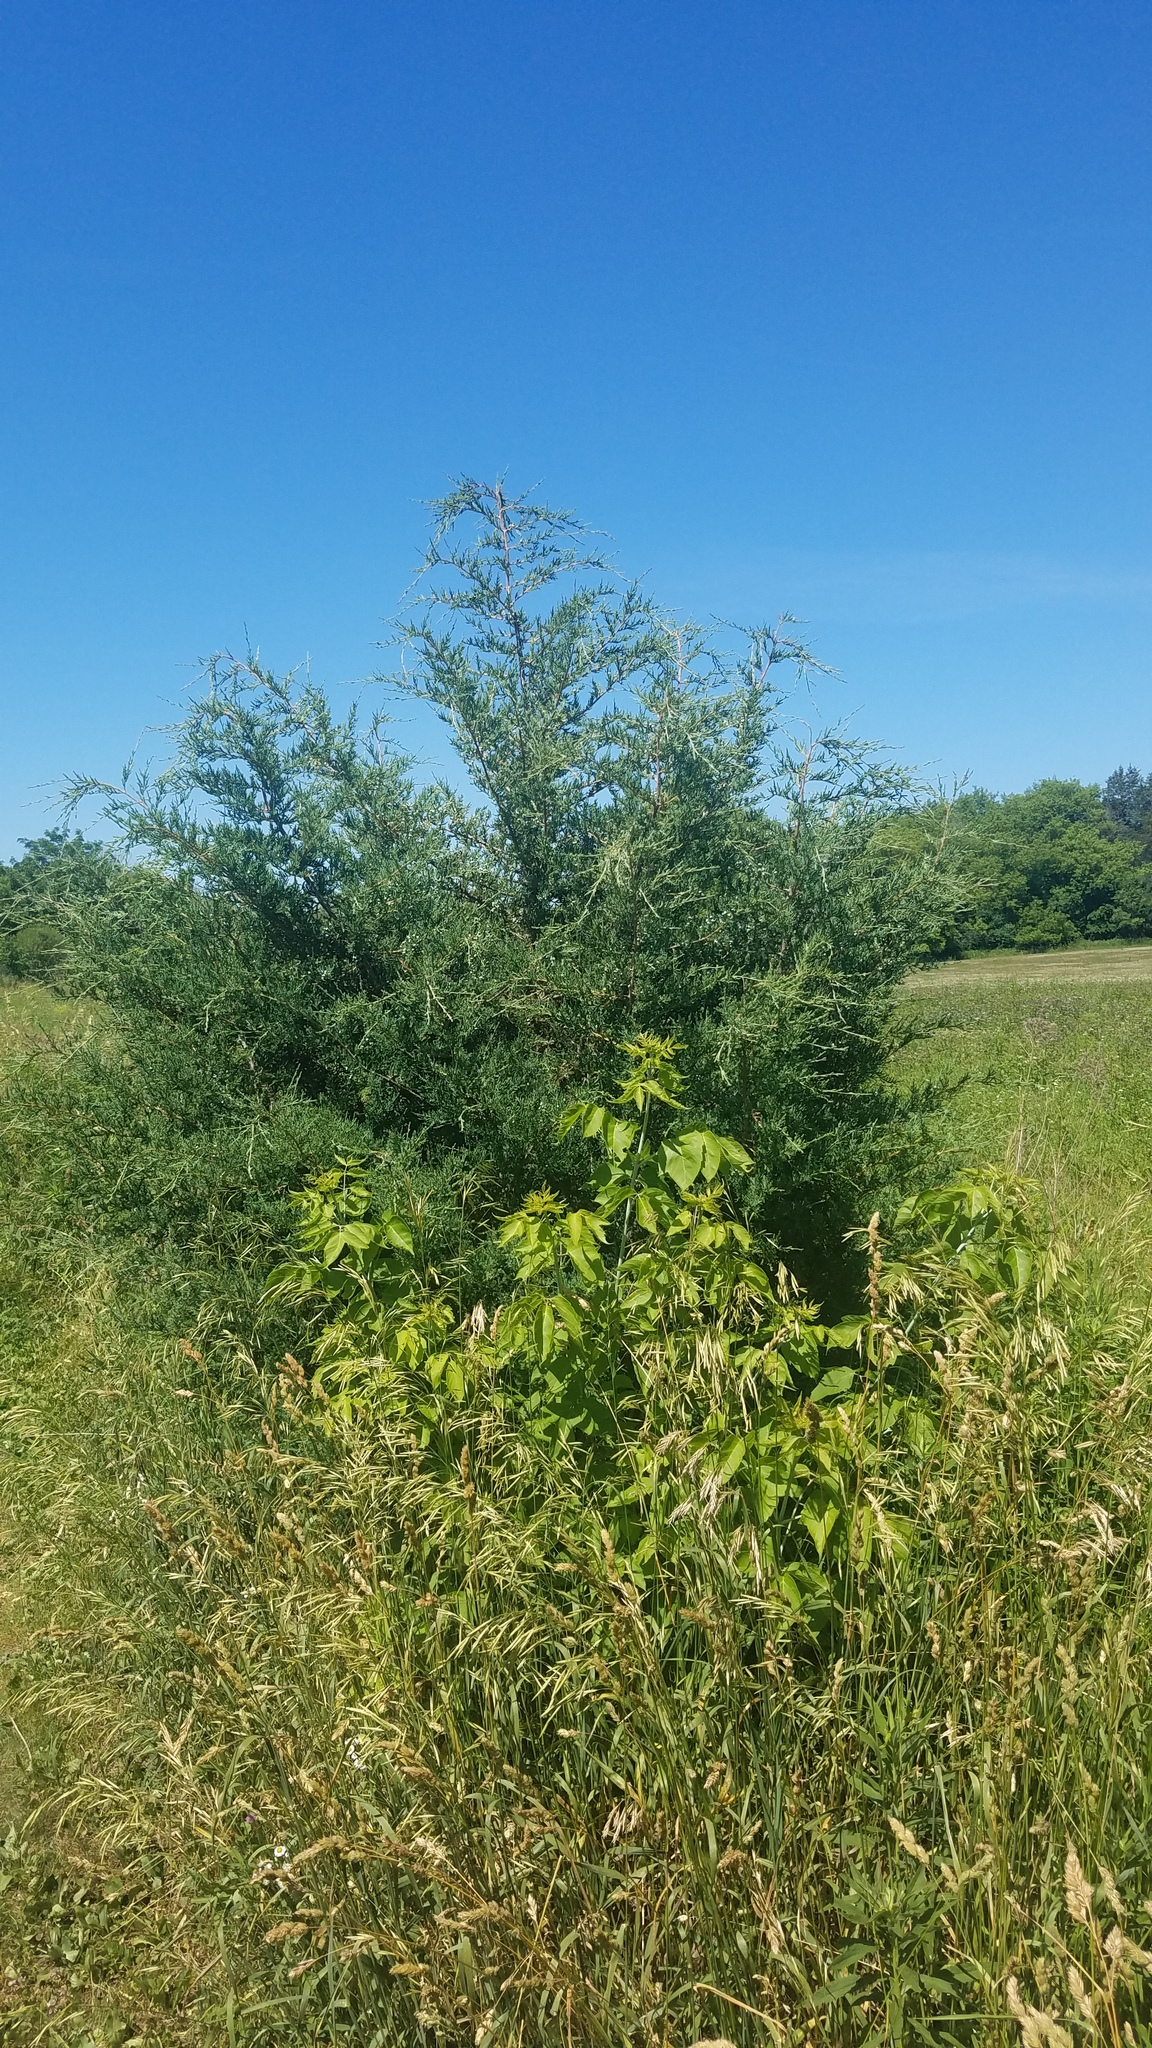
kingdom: Plantae
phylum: Tracheophyta
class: Pinopsida
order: Pinales
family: Cupressaceae
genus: Juniperus
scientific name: Juniperus virginiana
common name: Red juniper
